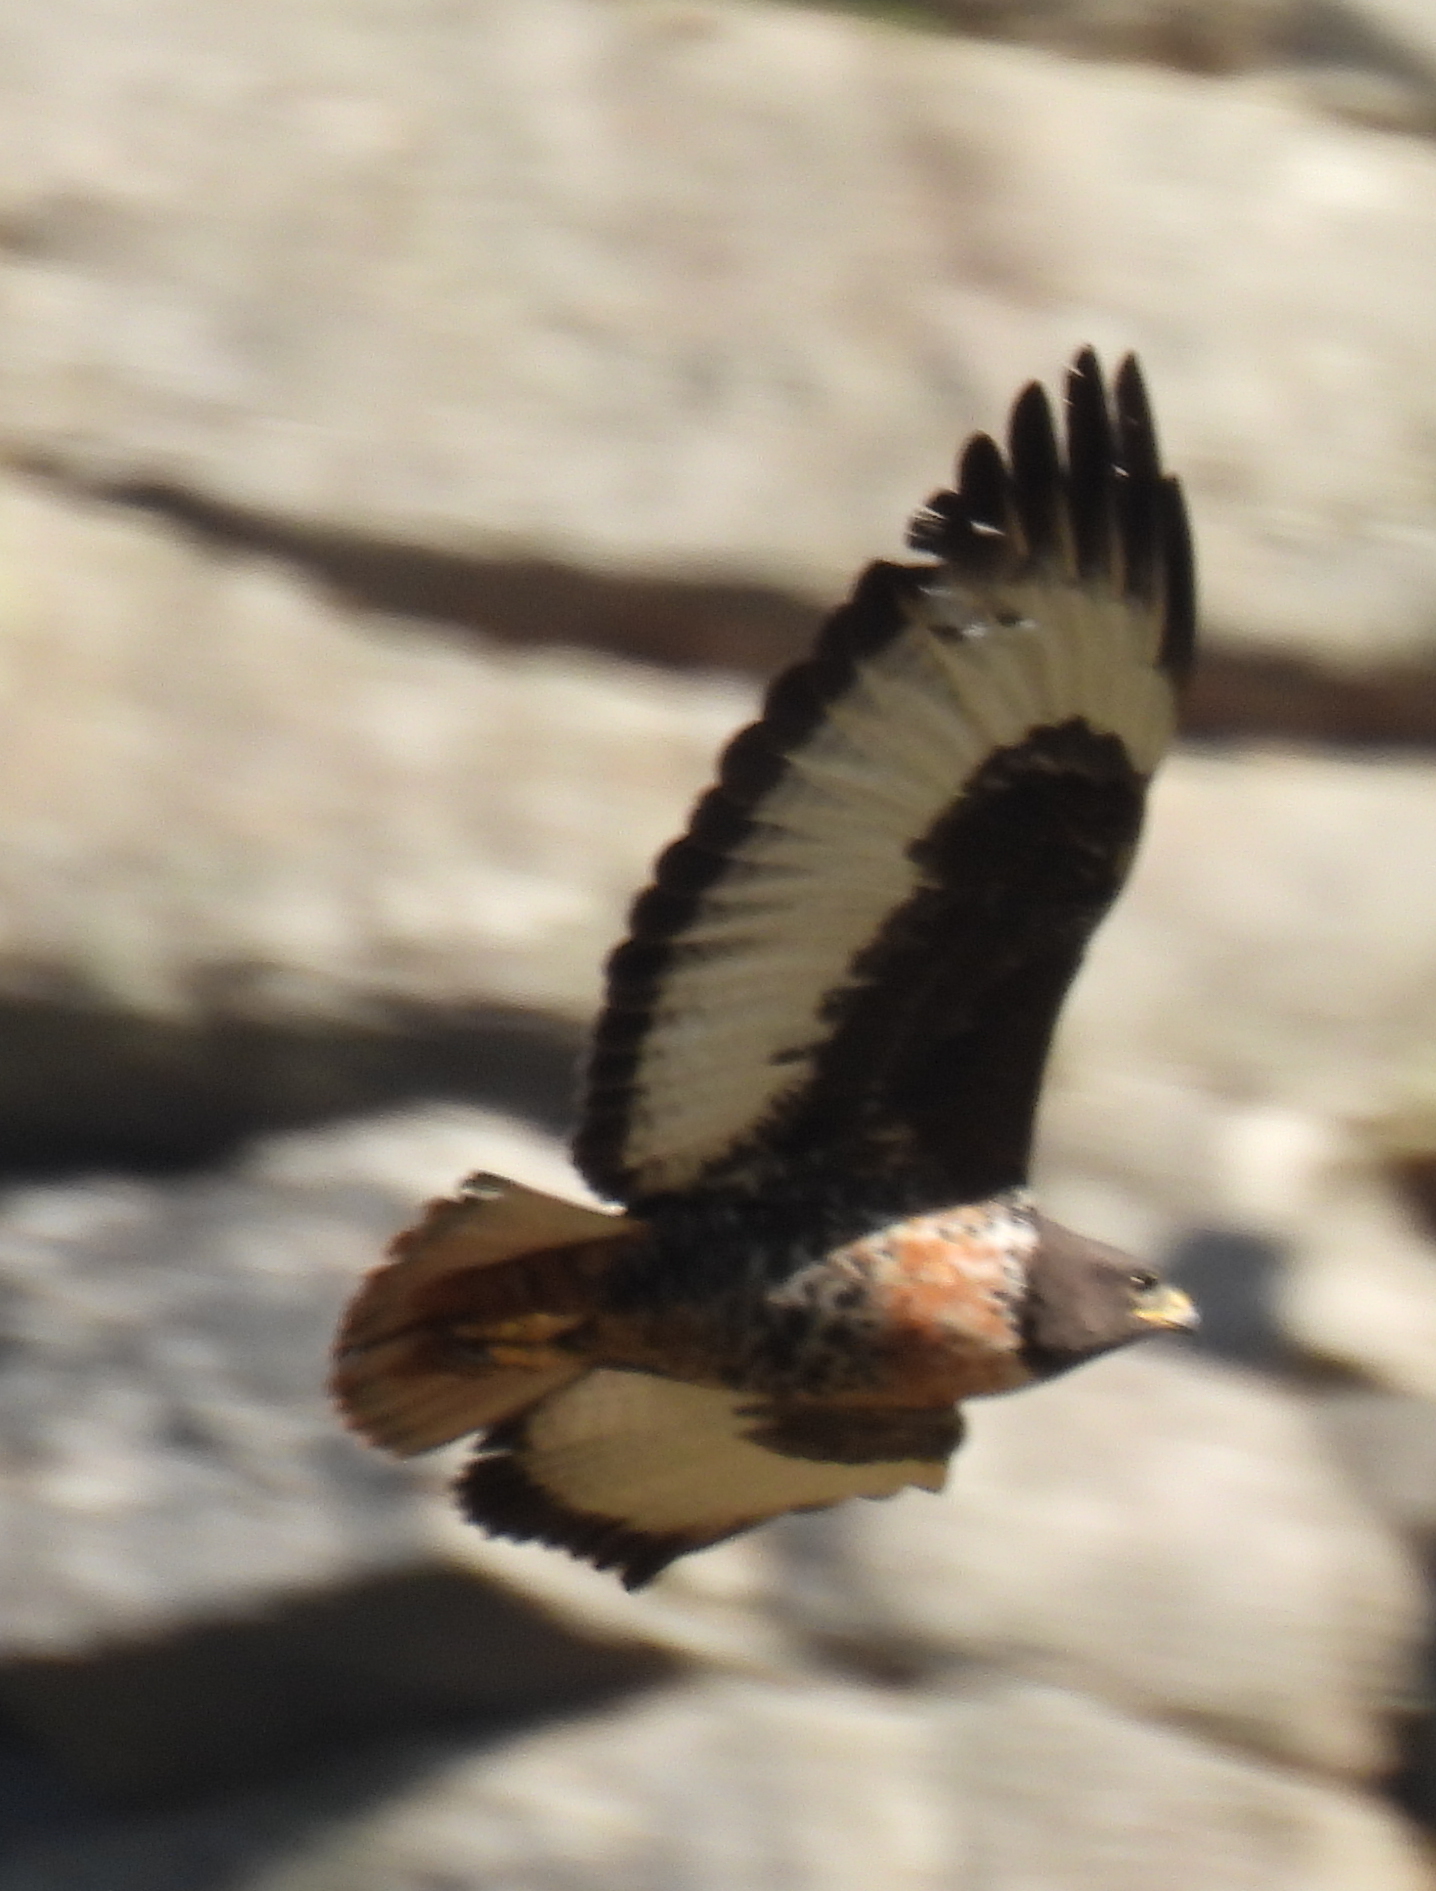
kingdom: Animalia
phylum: Chordata
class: Aves
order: Accipitriformes
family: Accipitridae
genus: Buteo
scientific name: Buteo rufofuscus
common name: Jackal buzzard
